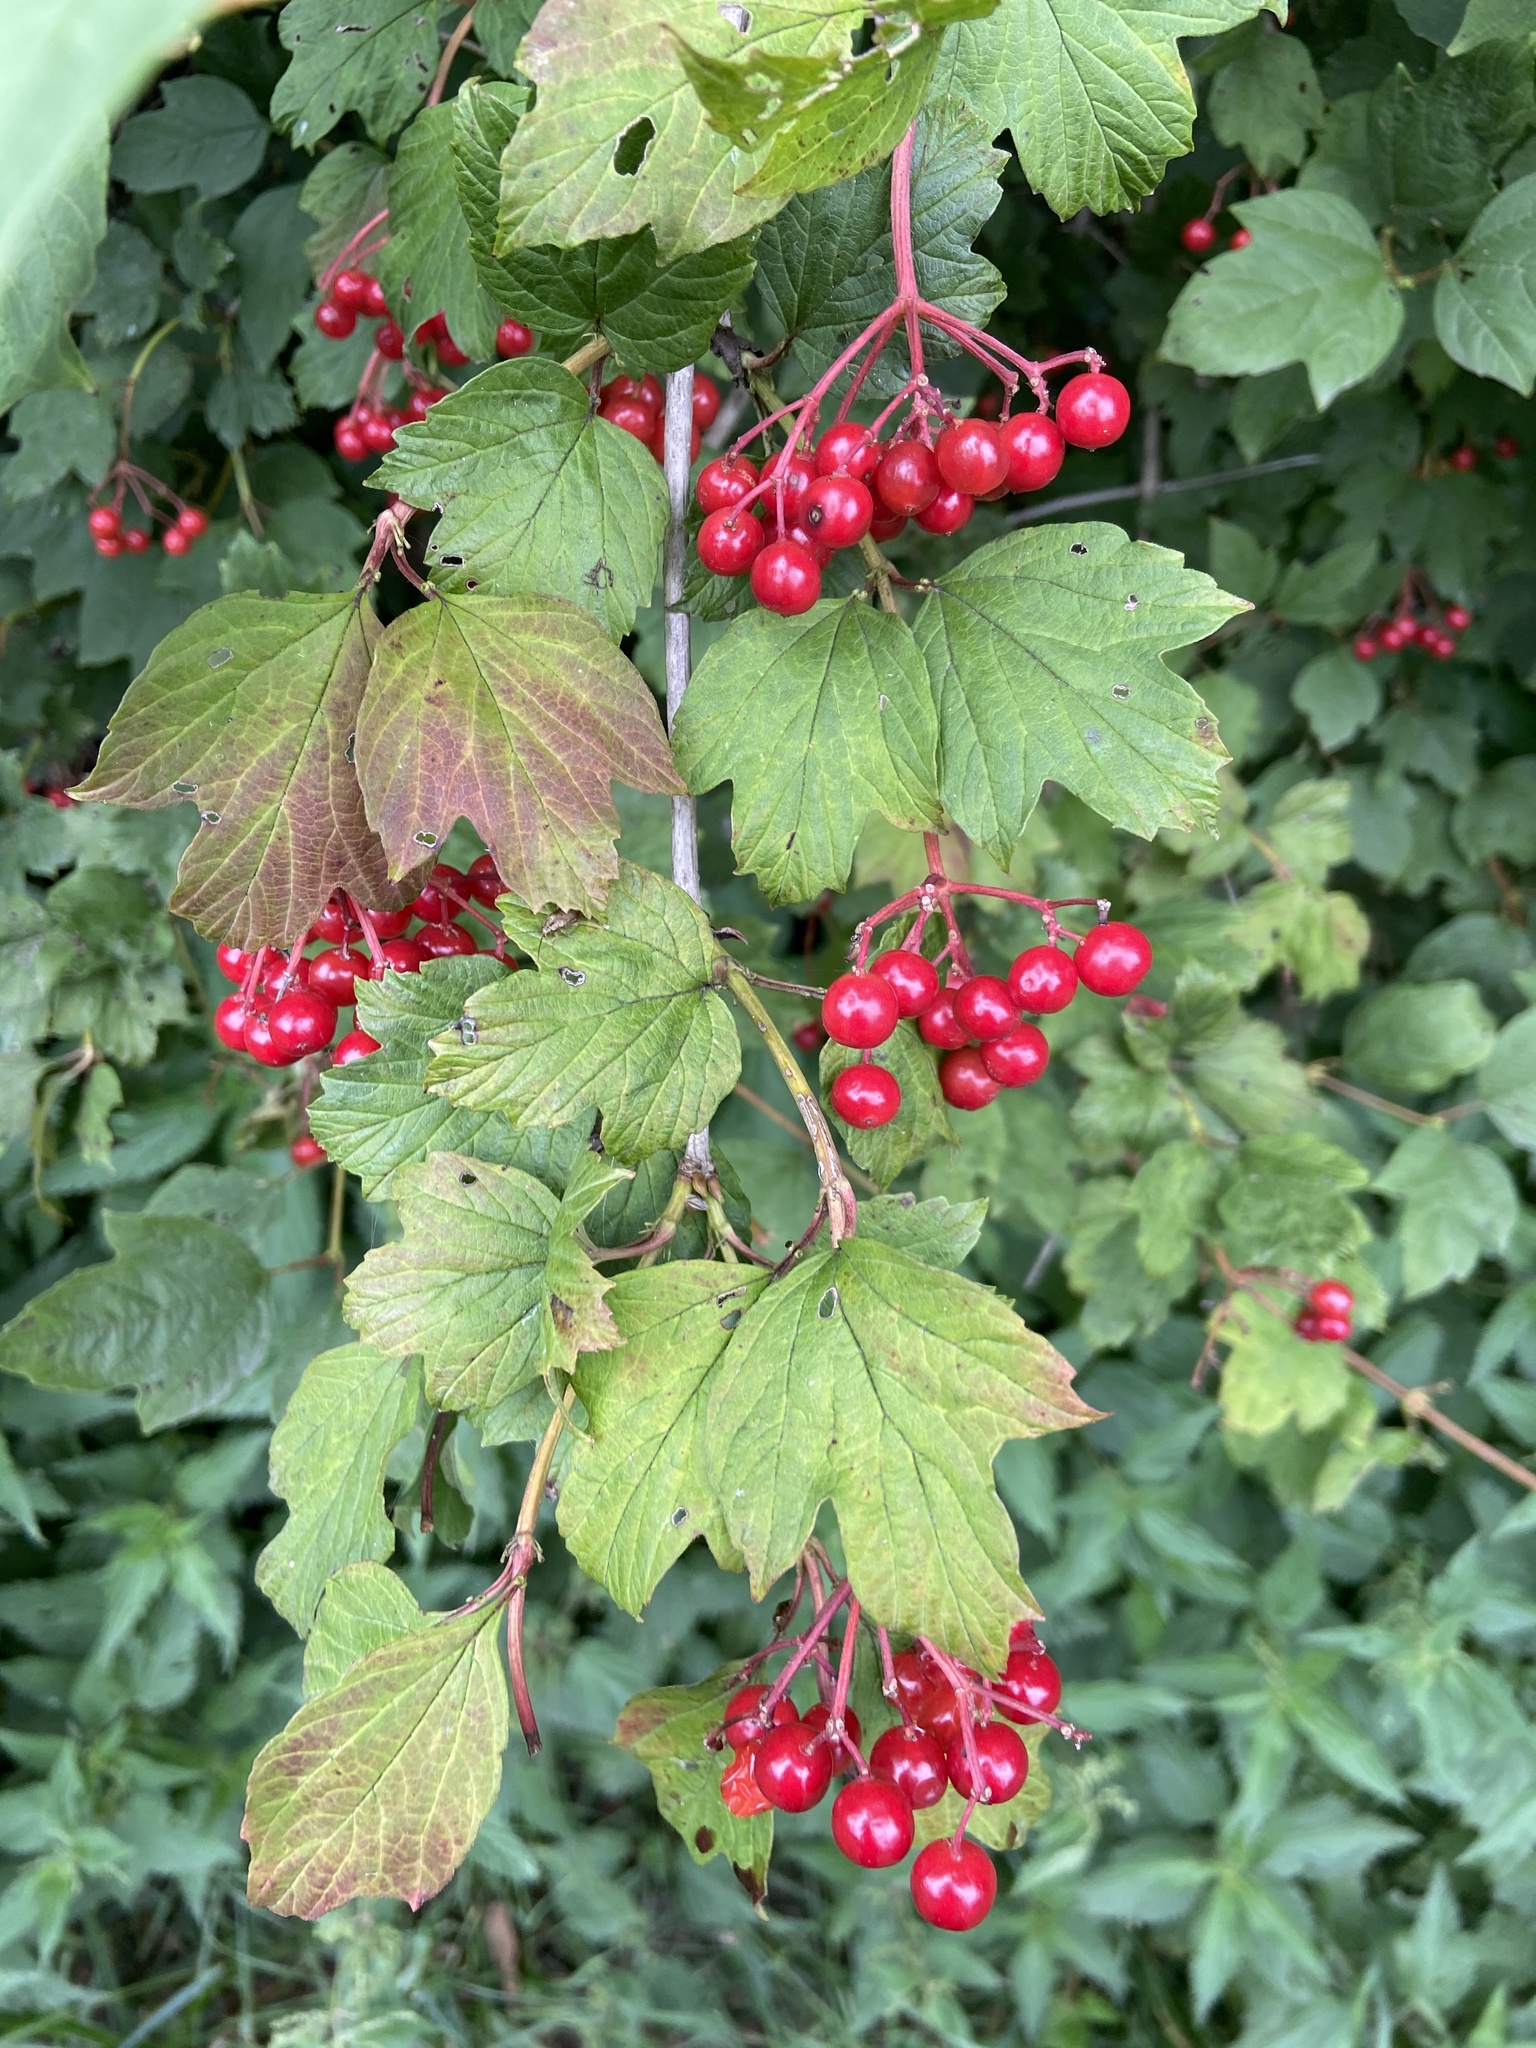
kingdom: Plantae
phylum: Tracheophyta
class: Magnoliopsida
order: Dipsacales
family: Viburnaceae
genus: Viburnum
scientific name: Viburnum opulus
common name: Guelder-rose
